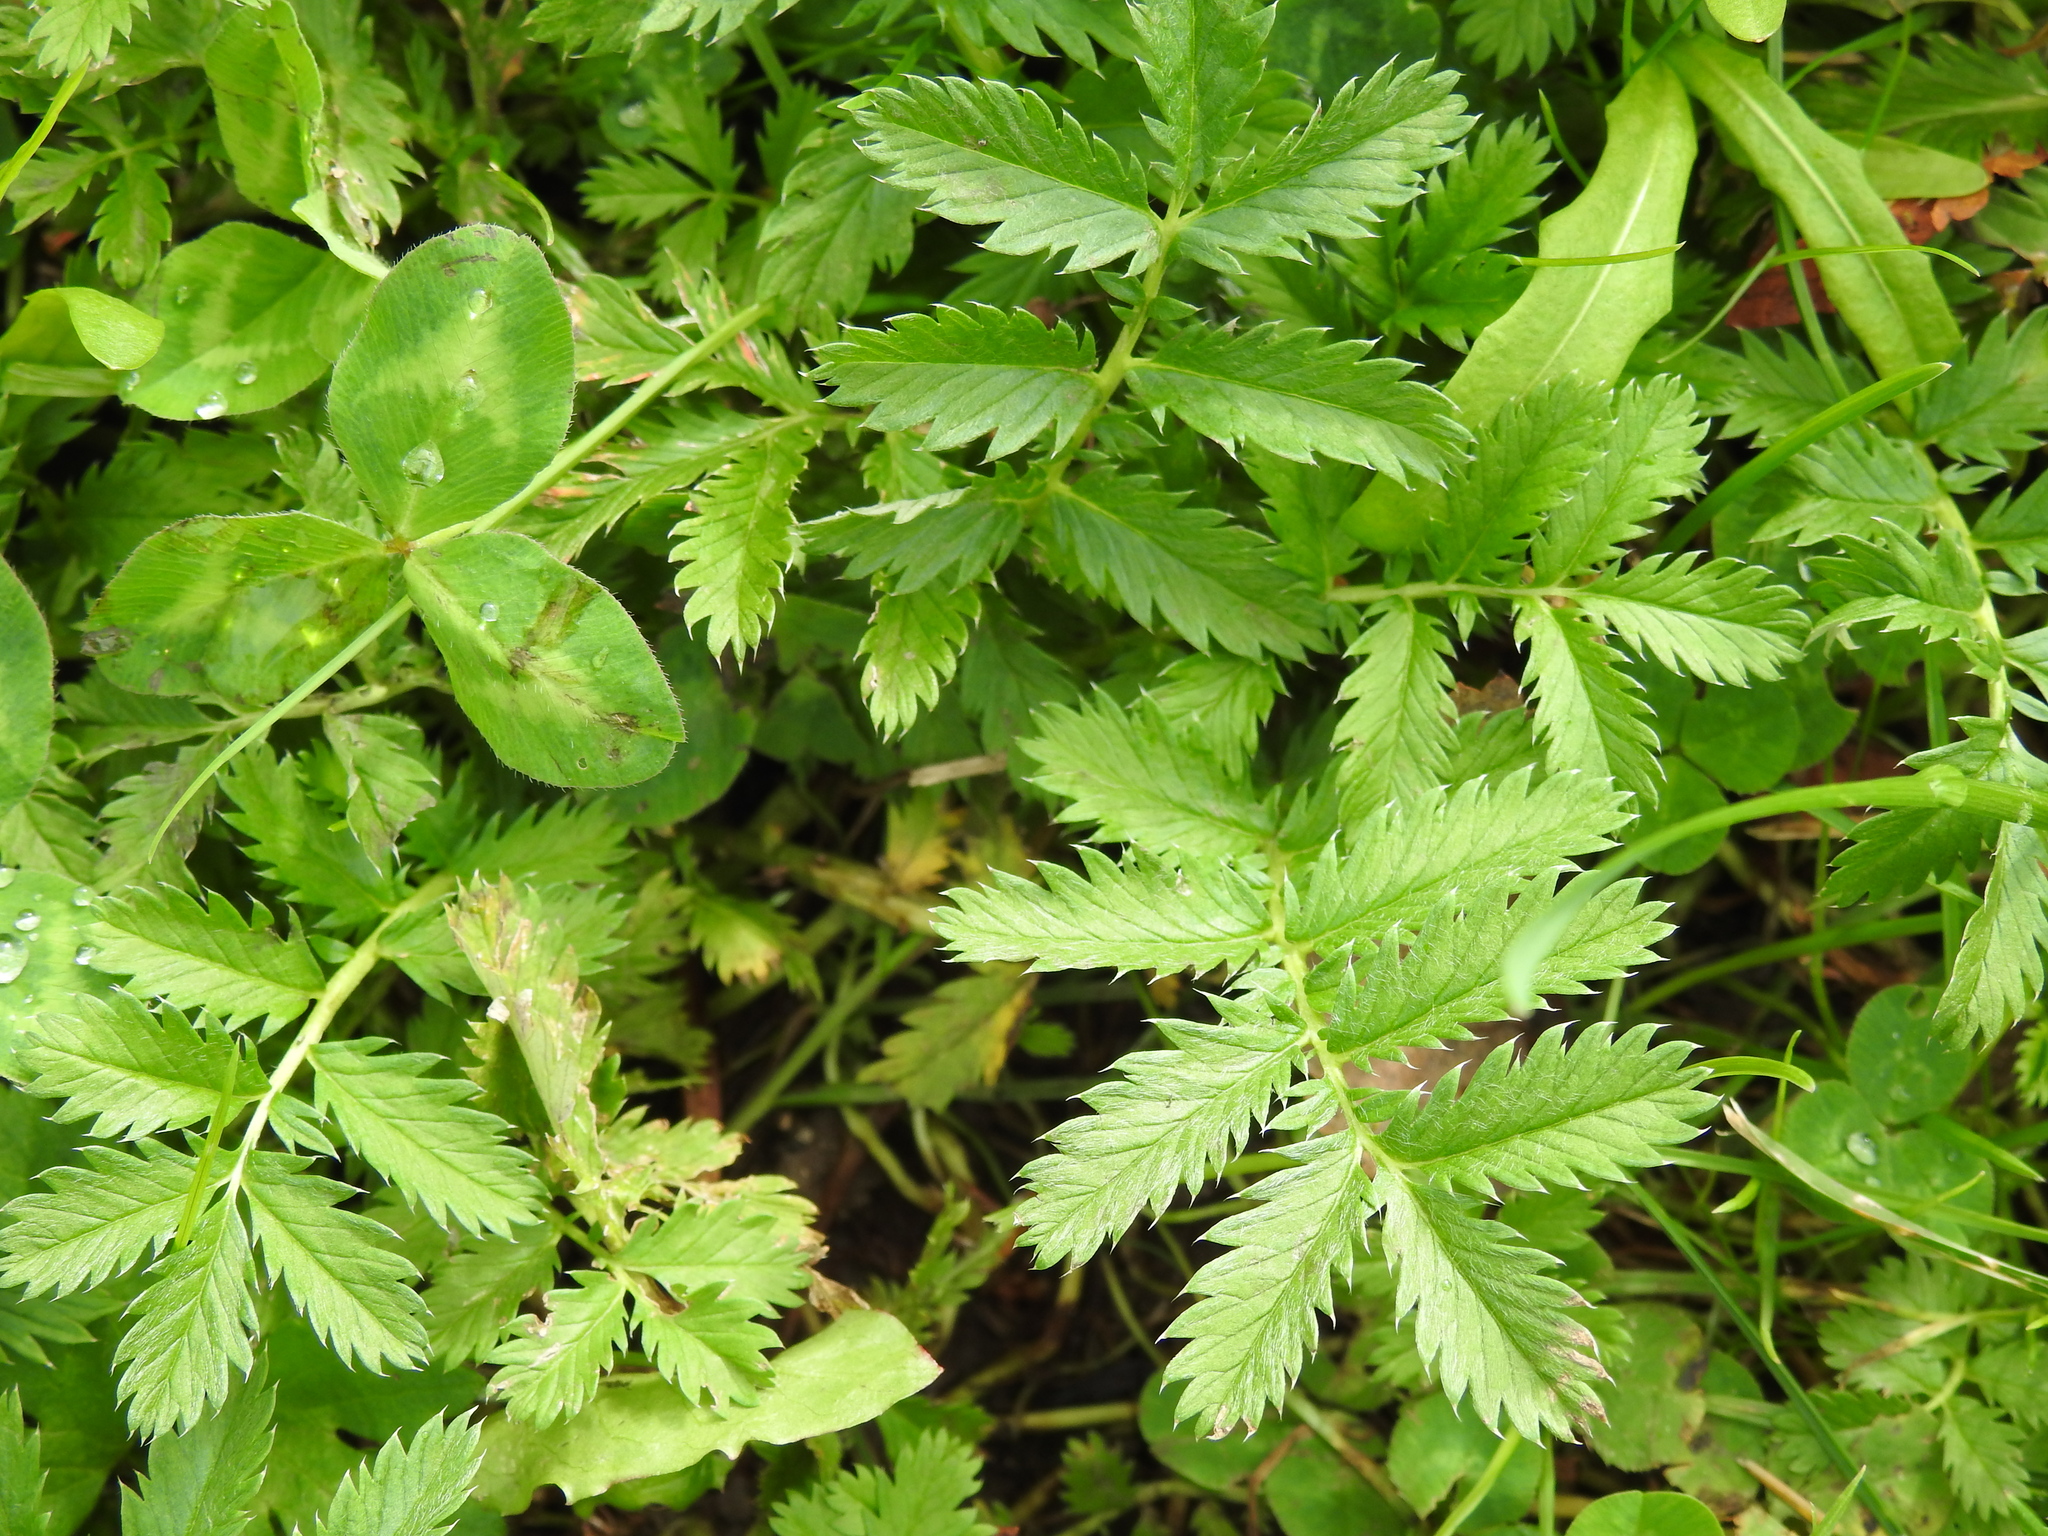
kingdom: Plantae
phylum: Tracheophyta
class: Magnoliopsida
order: Rosales
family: Rosaceae
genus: Argentina
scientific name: Argentina anserina
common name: Common silverweed
